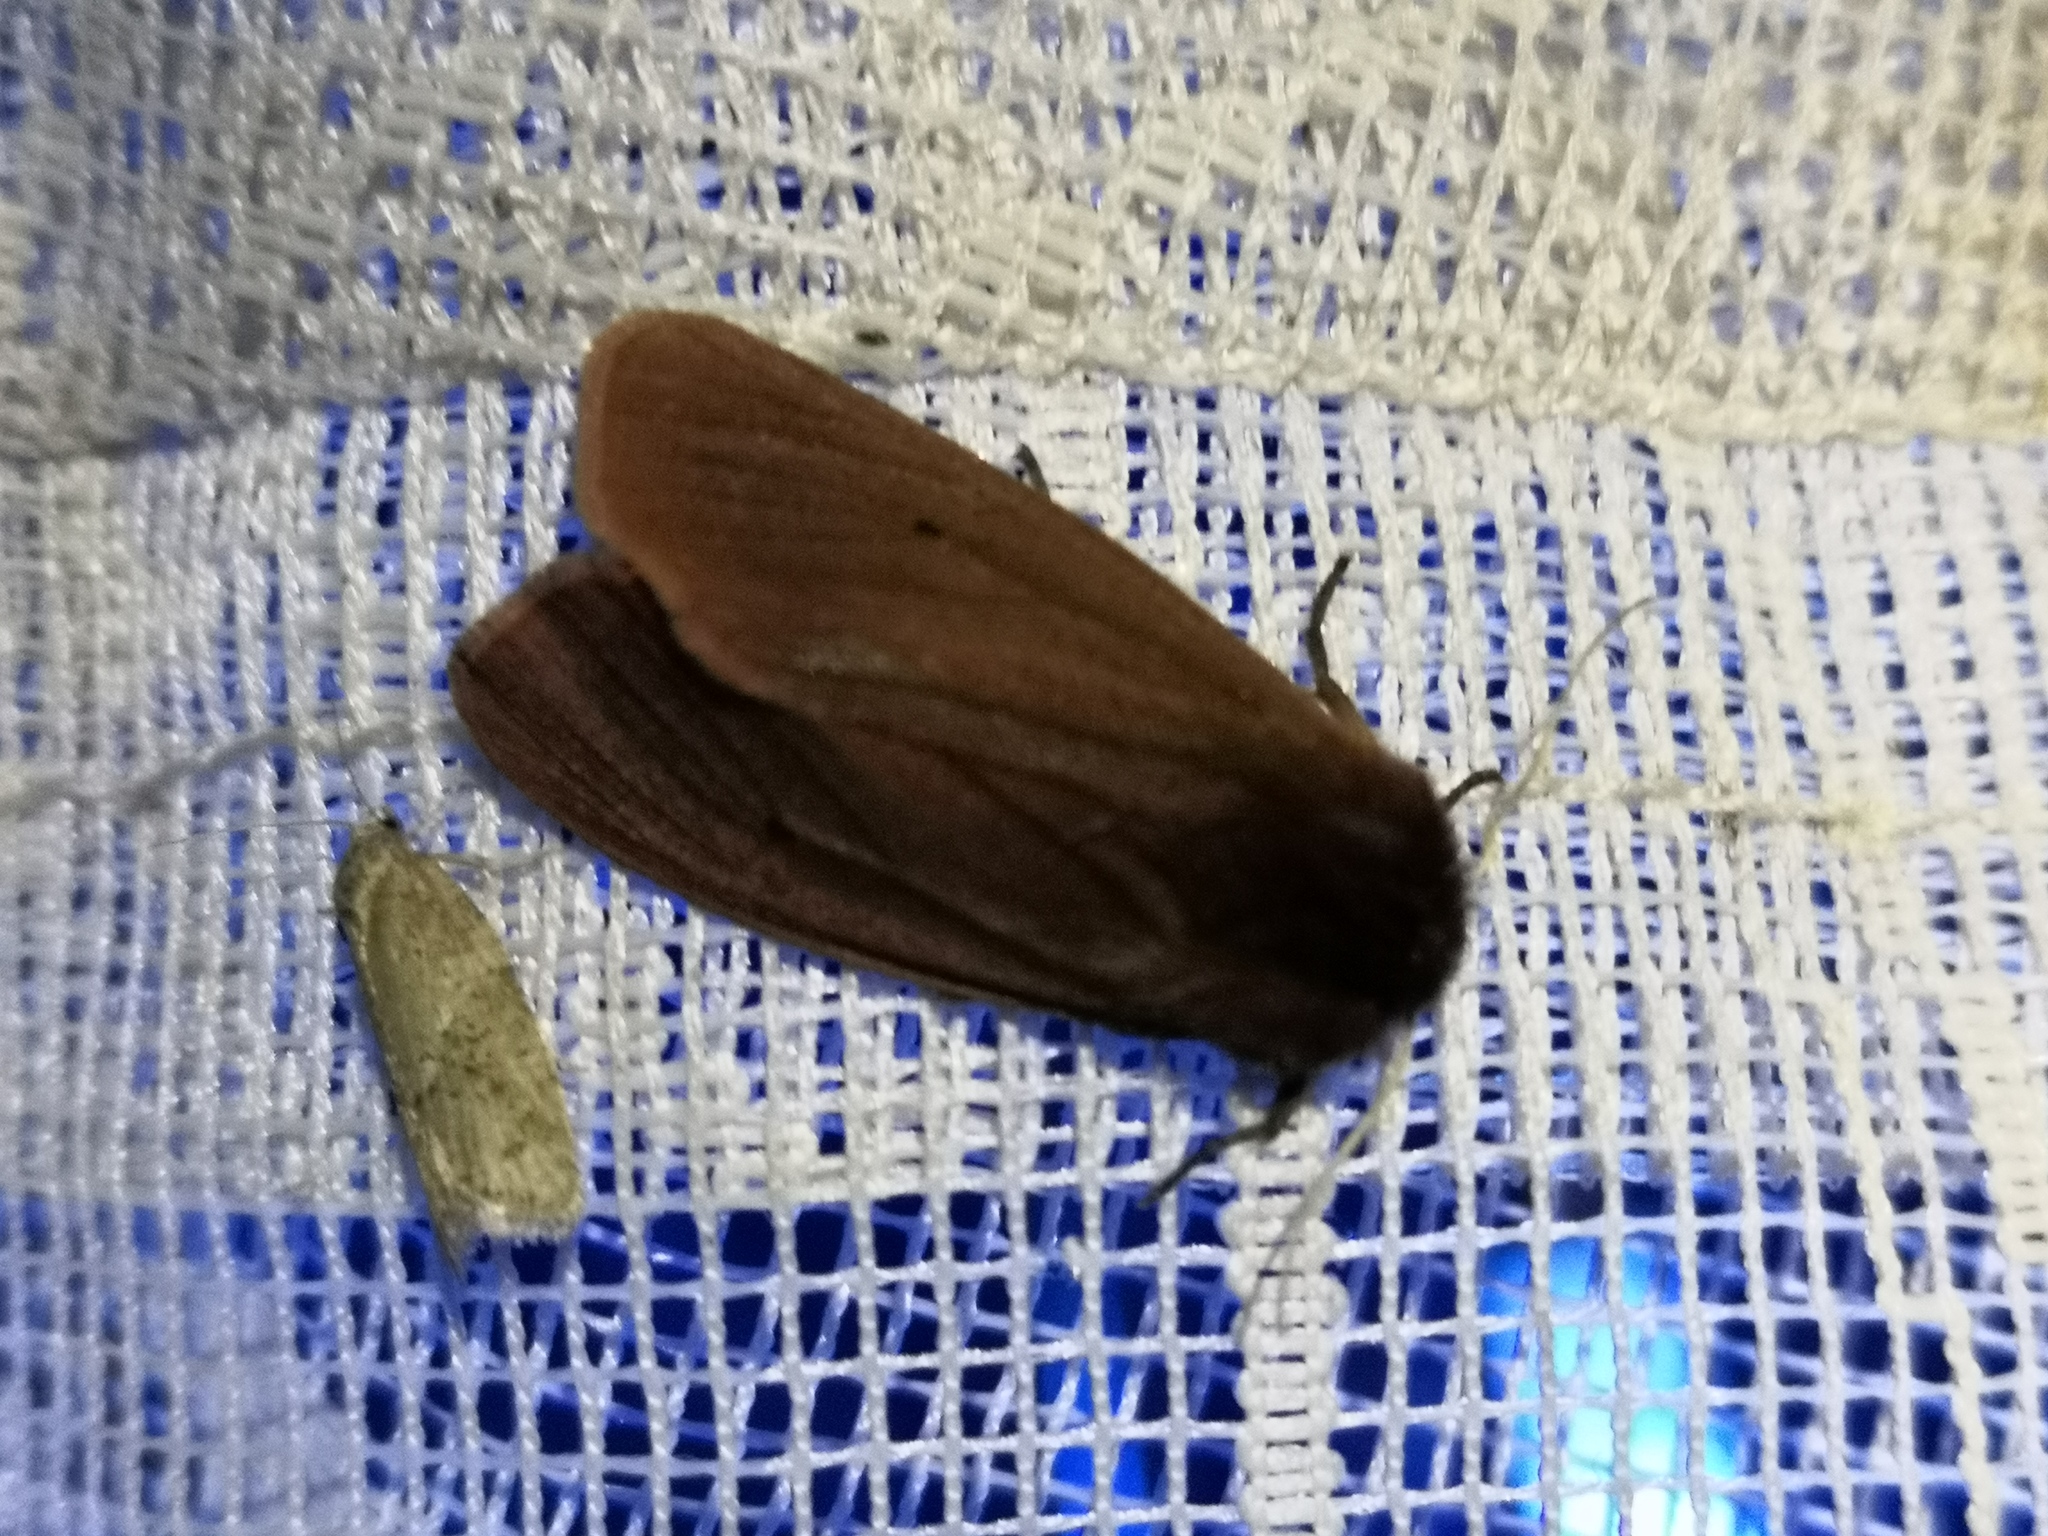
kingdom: Animalia
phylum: Arthropoda
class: Insecta
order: Lepidoptera
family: Erebidae
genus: Phragmatobia
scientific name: Phragmatobia fuliginosa
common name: Ruby tiger
